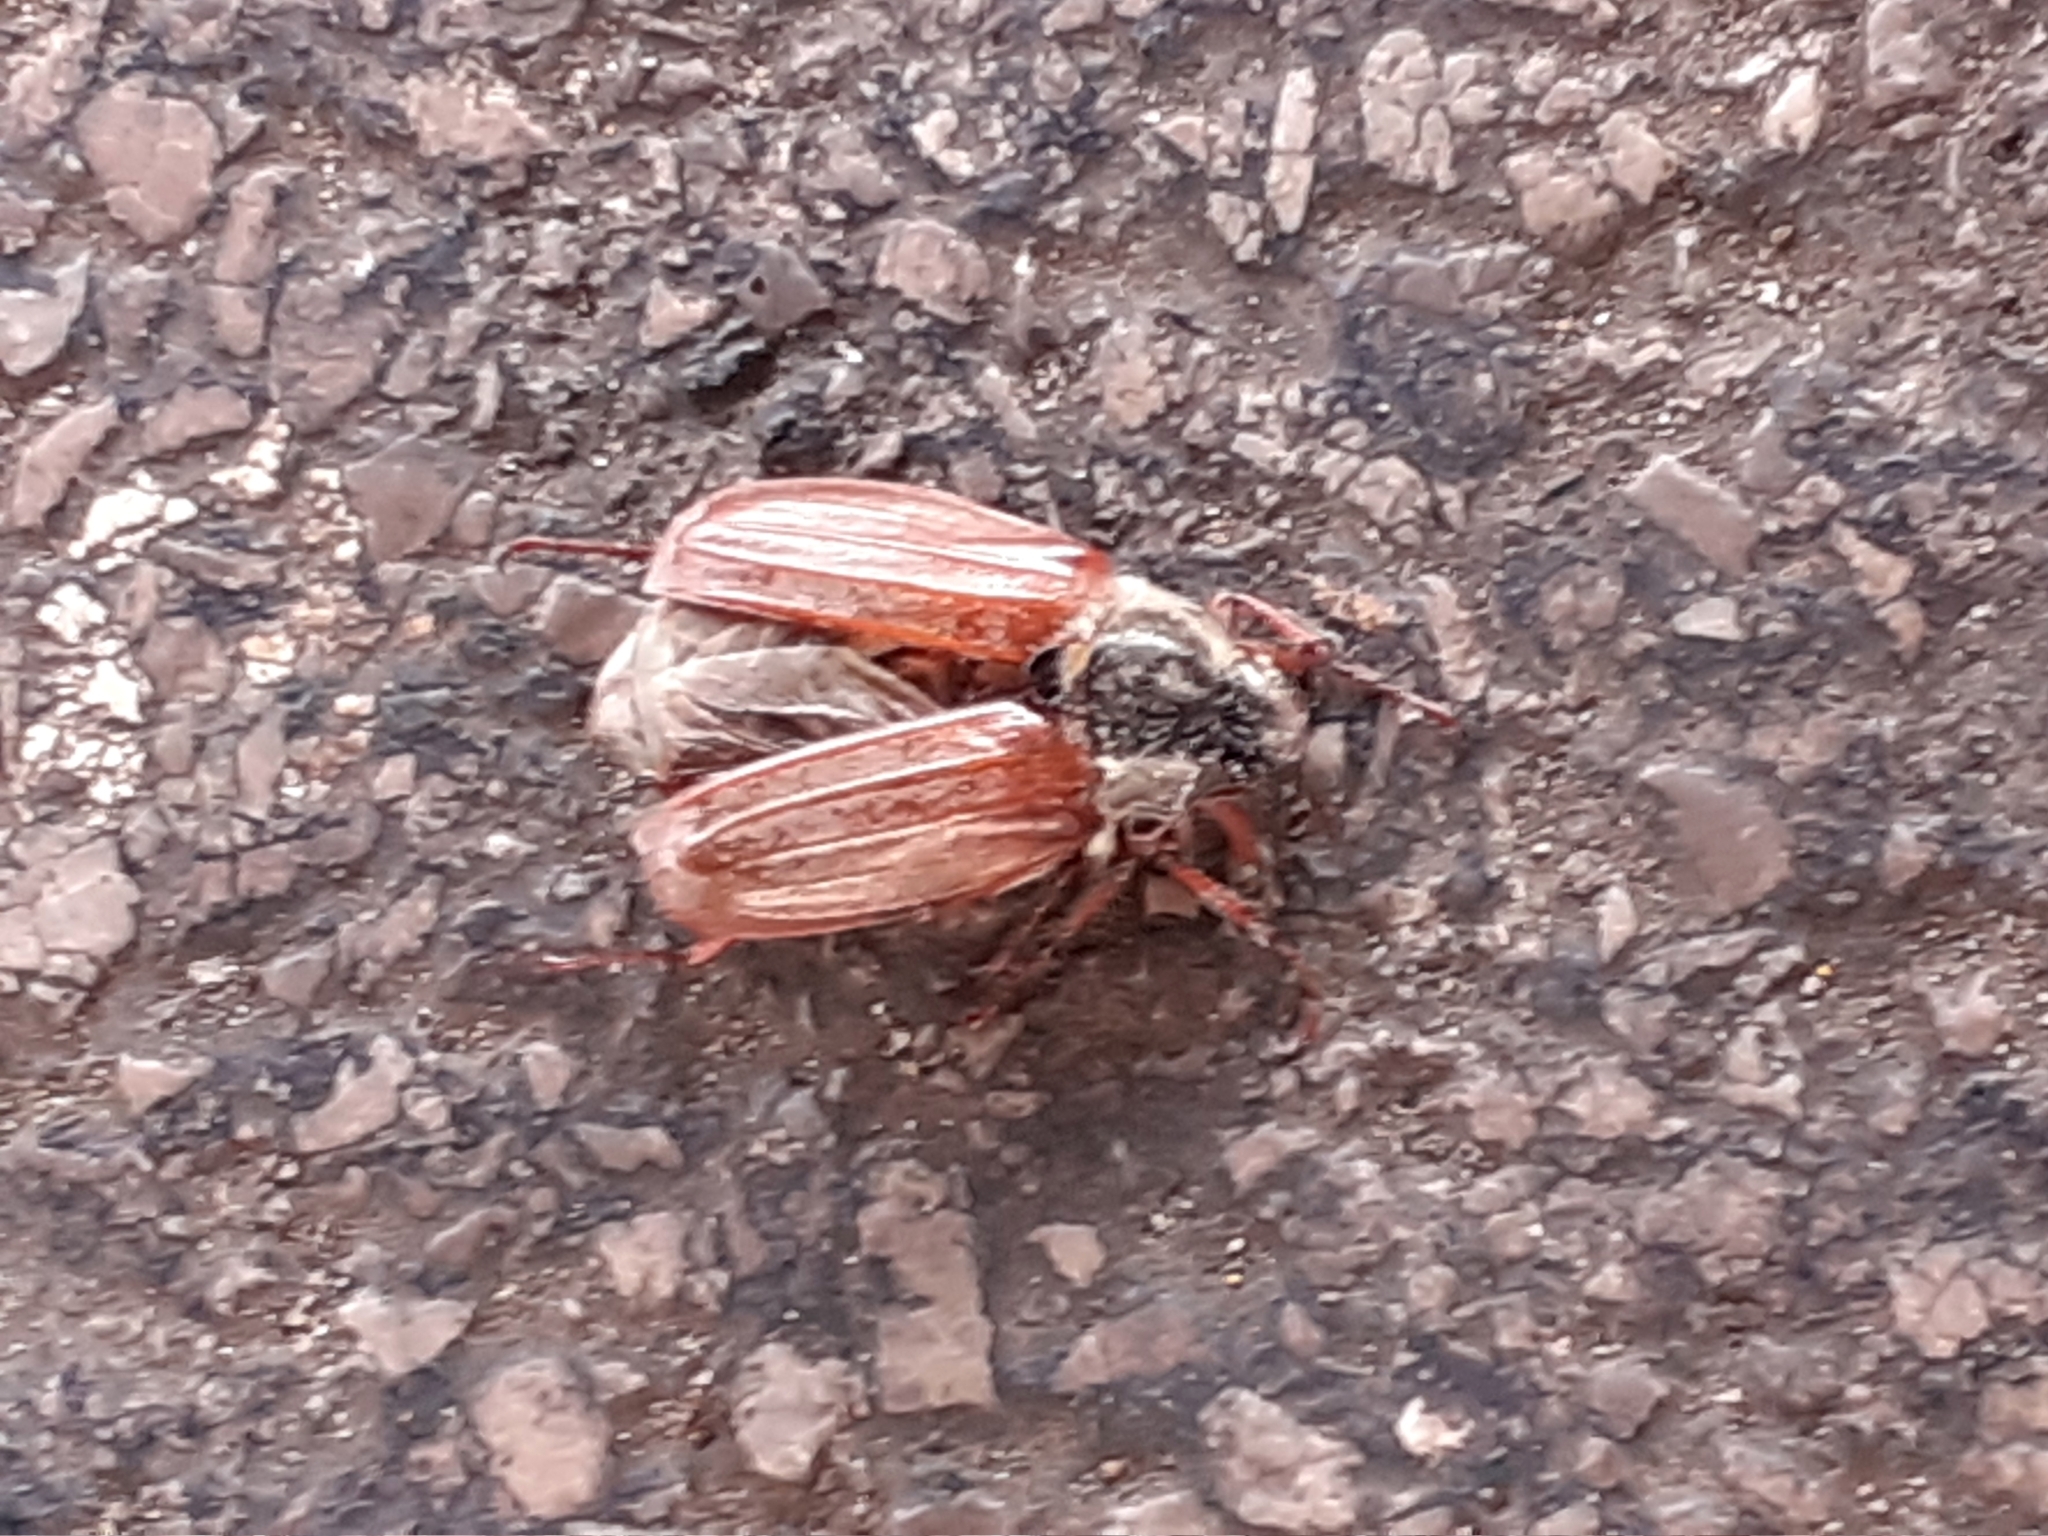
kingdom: Animalia
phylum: Arthropoda
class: Insecta
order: Coleoptera
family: Scarabaeidae
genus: Melolontha
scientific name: Melolontha melolontha
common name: Cockchafer maybeetle
